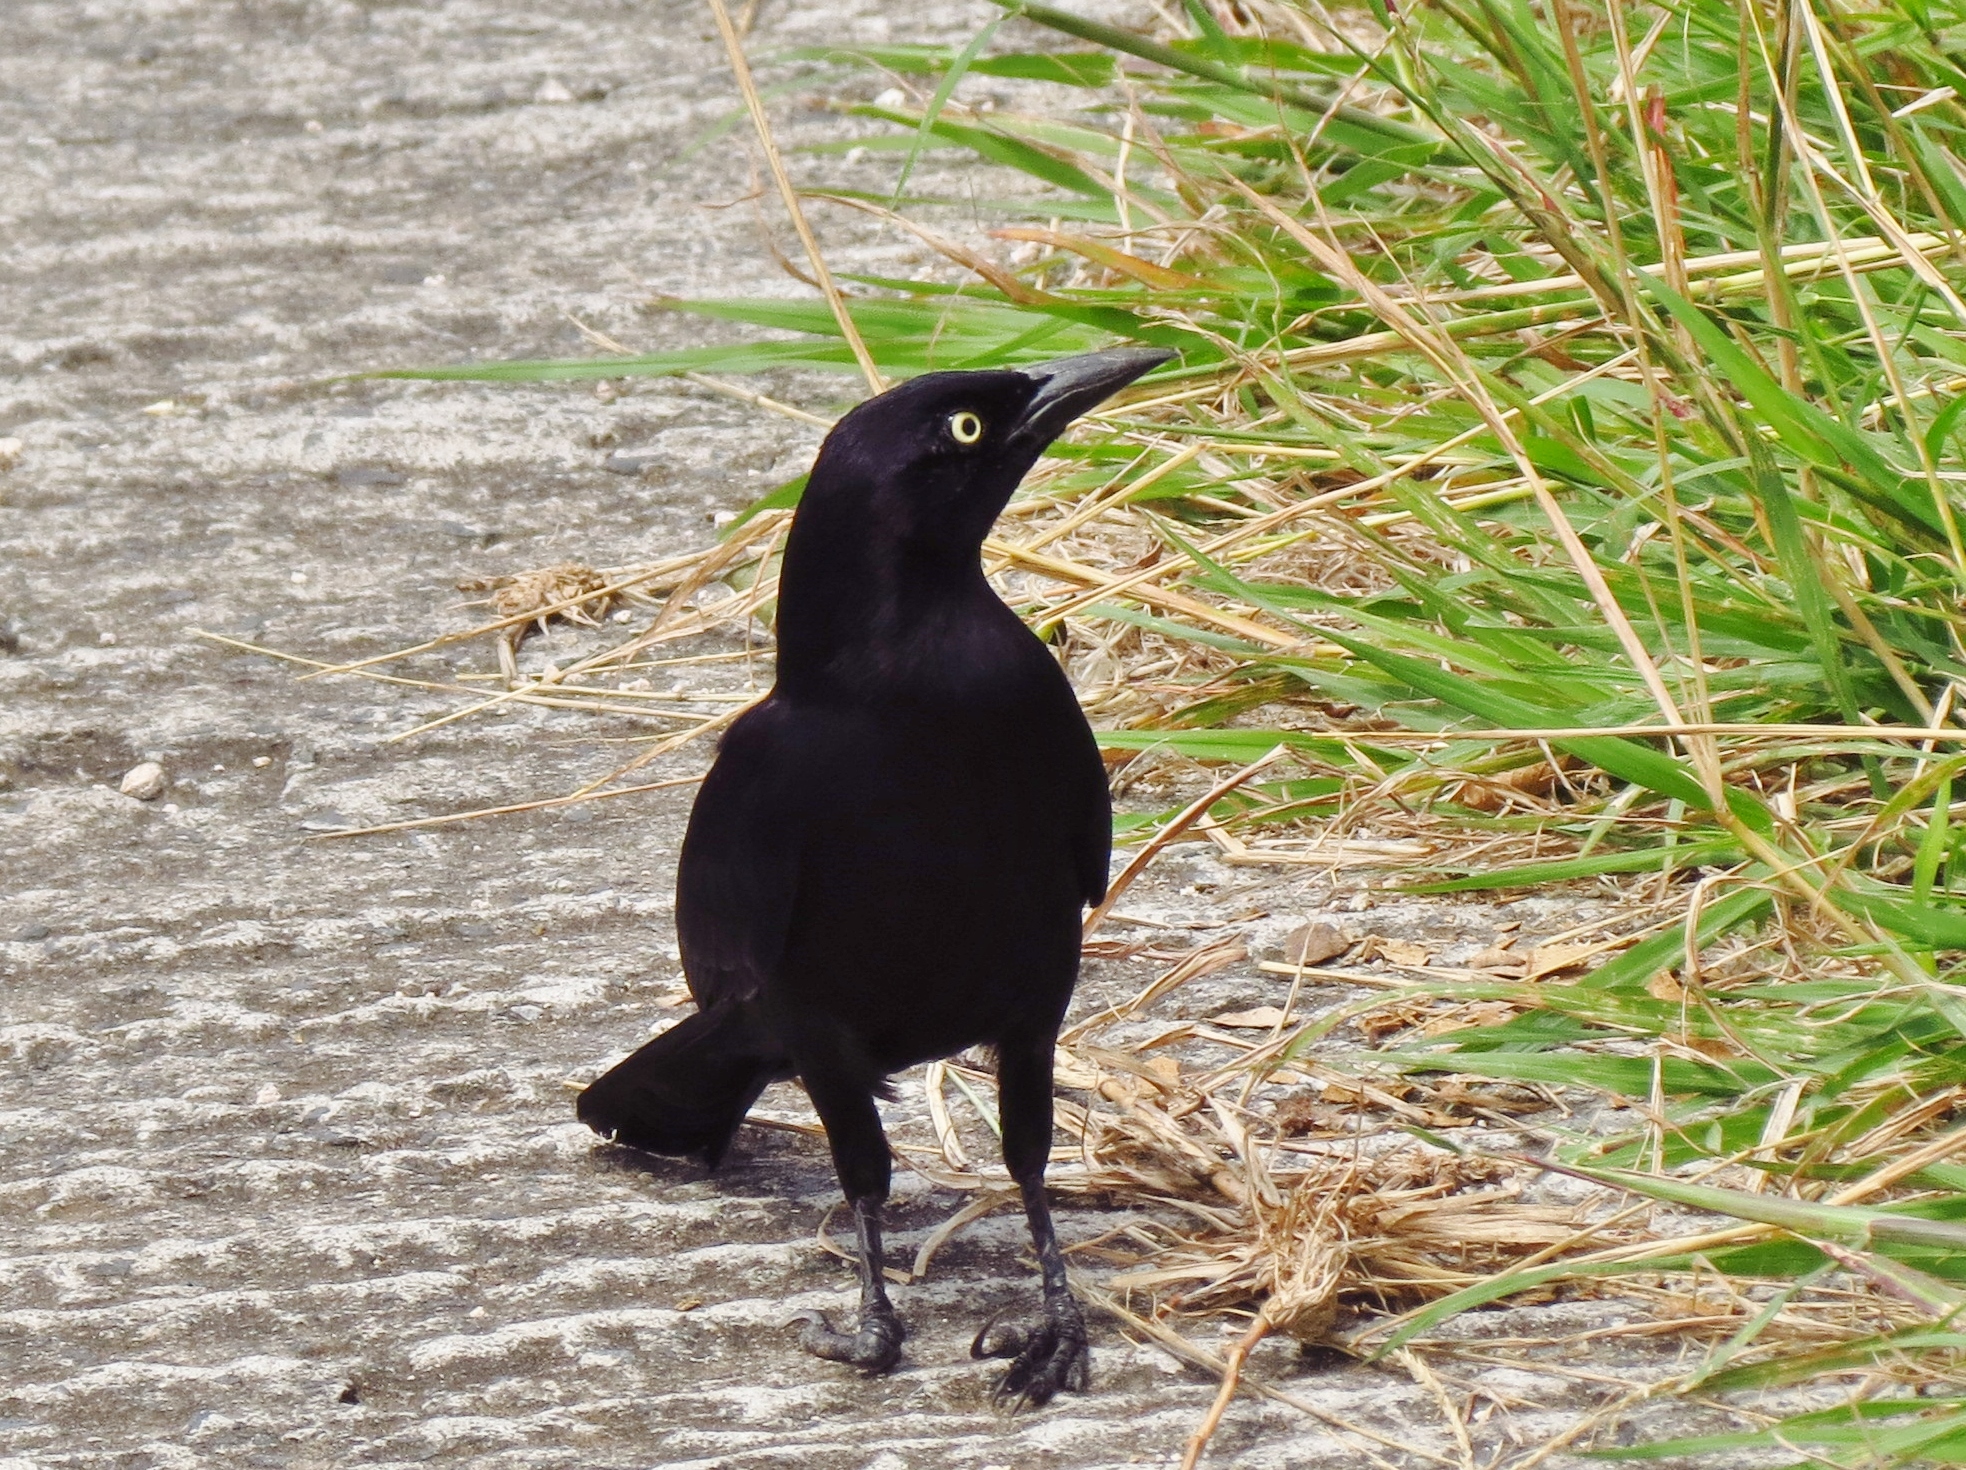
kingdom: Animalia
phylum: Chordata
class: Aves
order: Passeriformes
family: Icteridae
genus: Quiscalus
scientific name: Quiscalus lugubris
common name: Carib grackle
